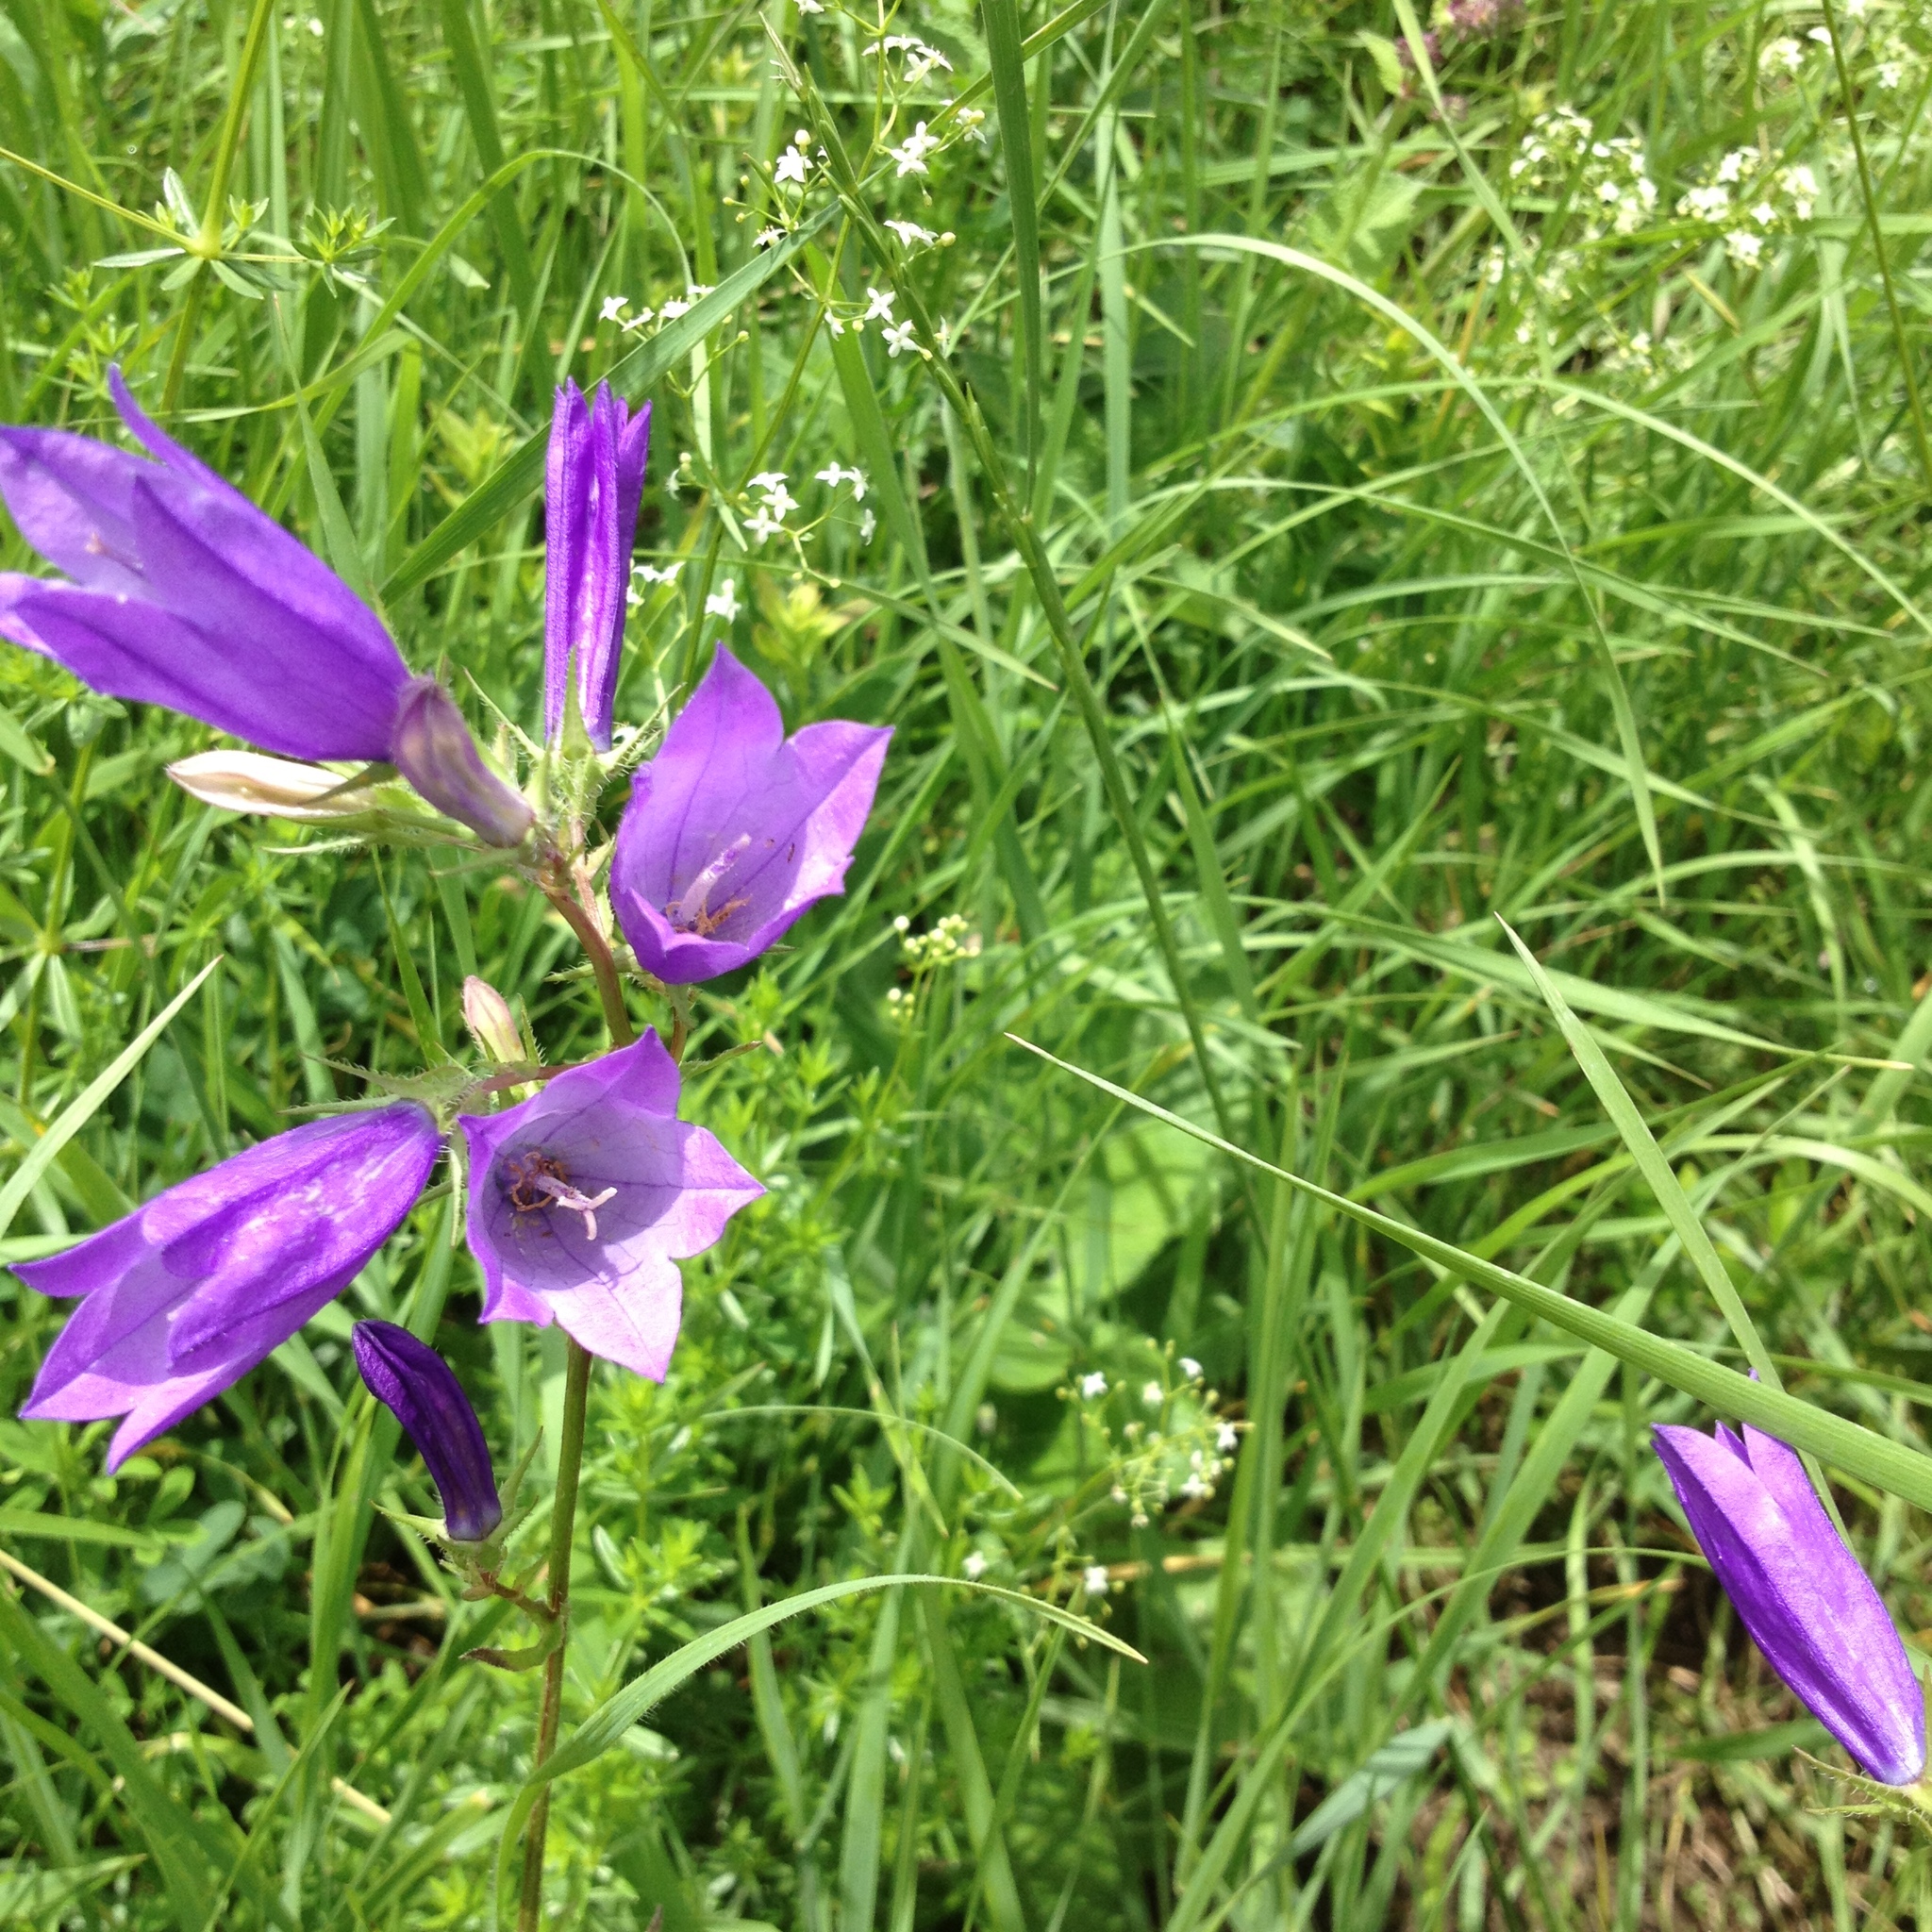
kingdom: Plantae
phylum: Tracheophyta
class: Magnoliopsida
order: Asterales
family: Campanulaceae
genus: Campanula
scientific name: Campanula sibirica
